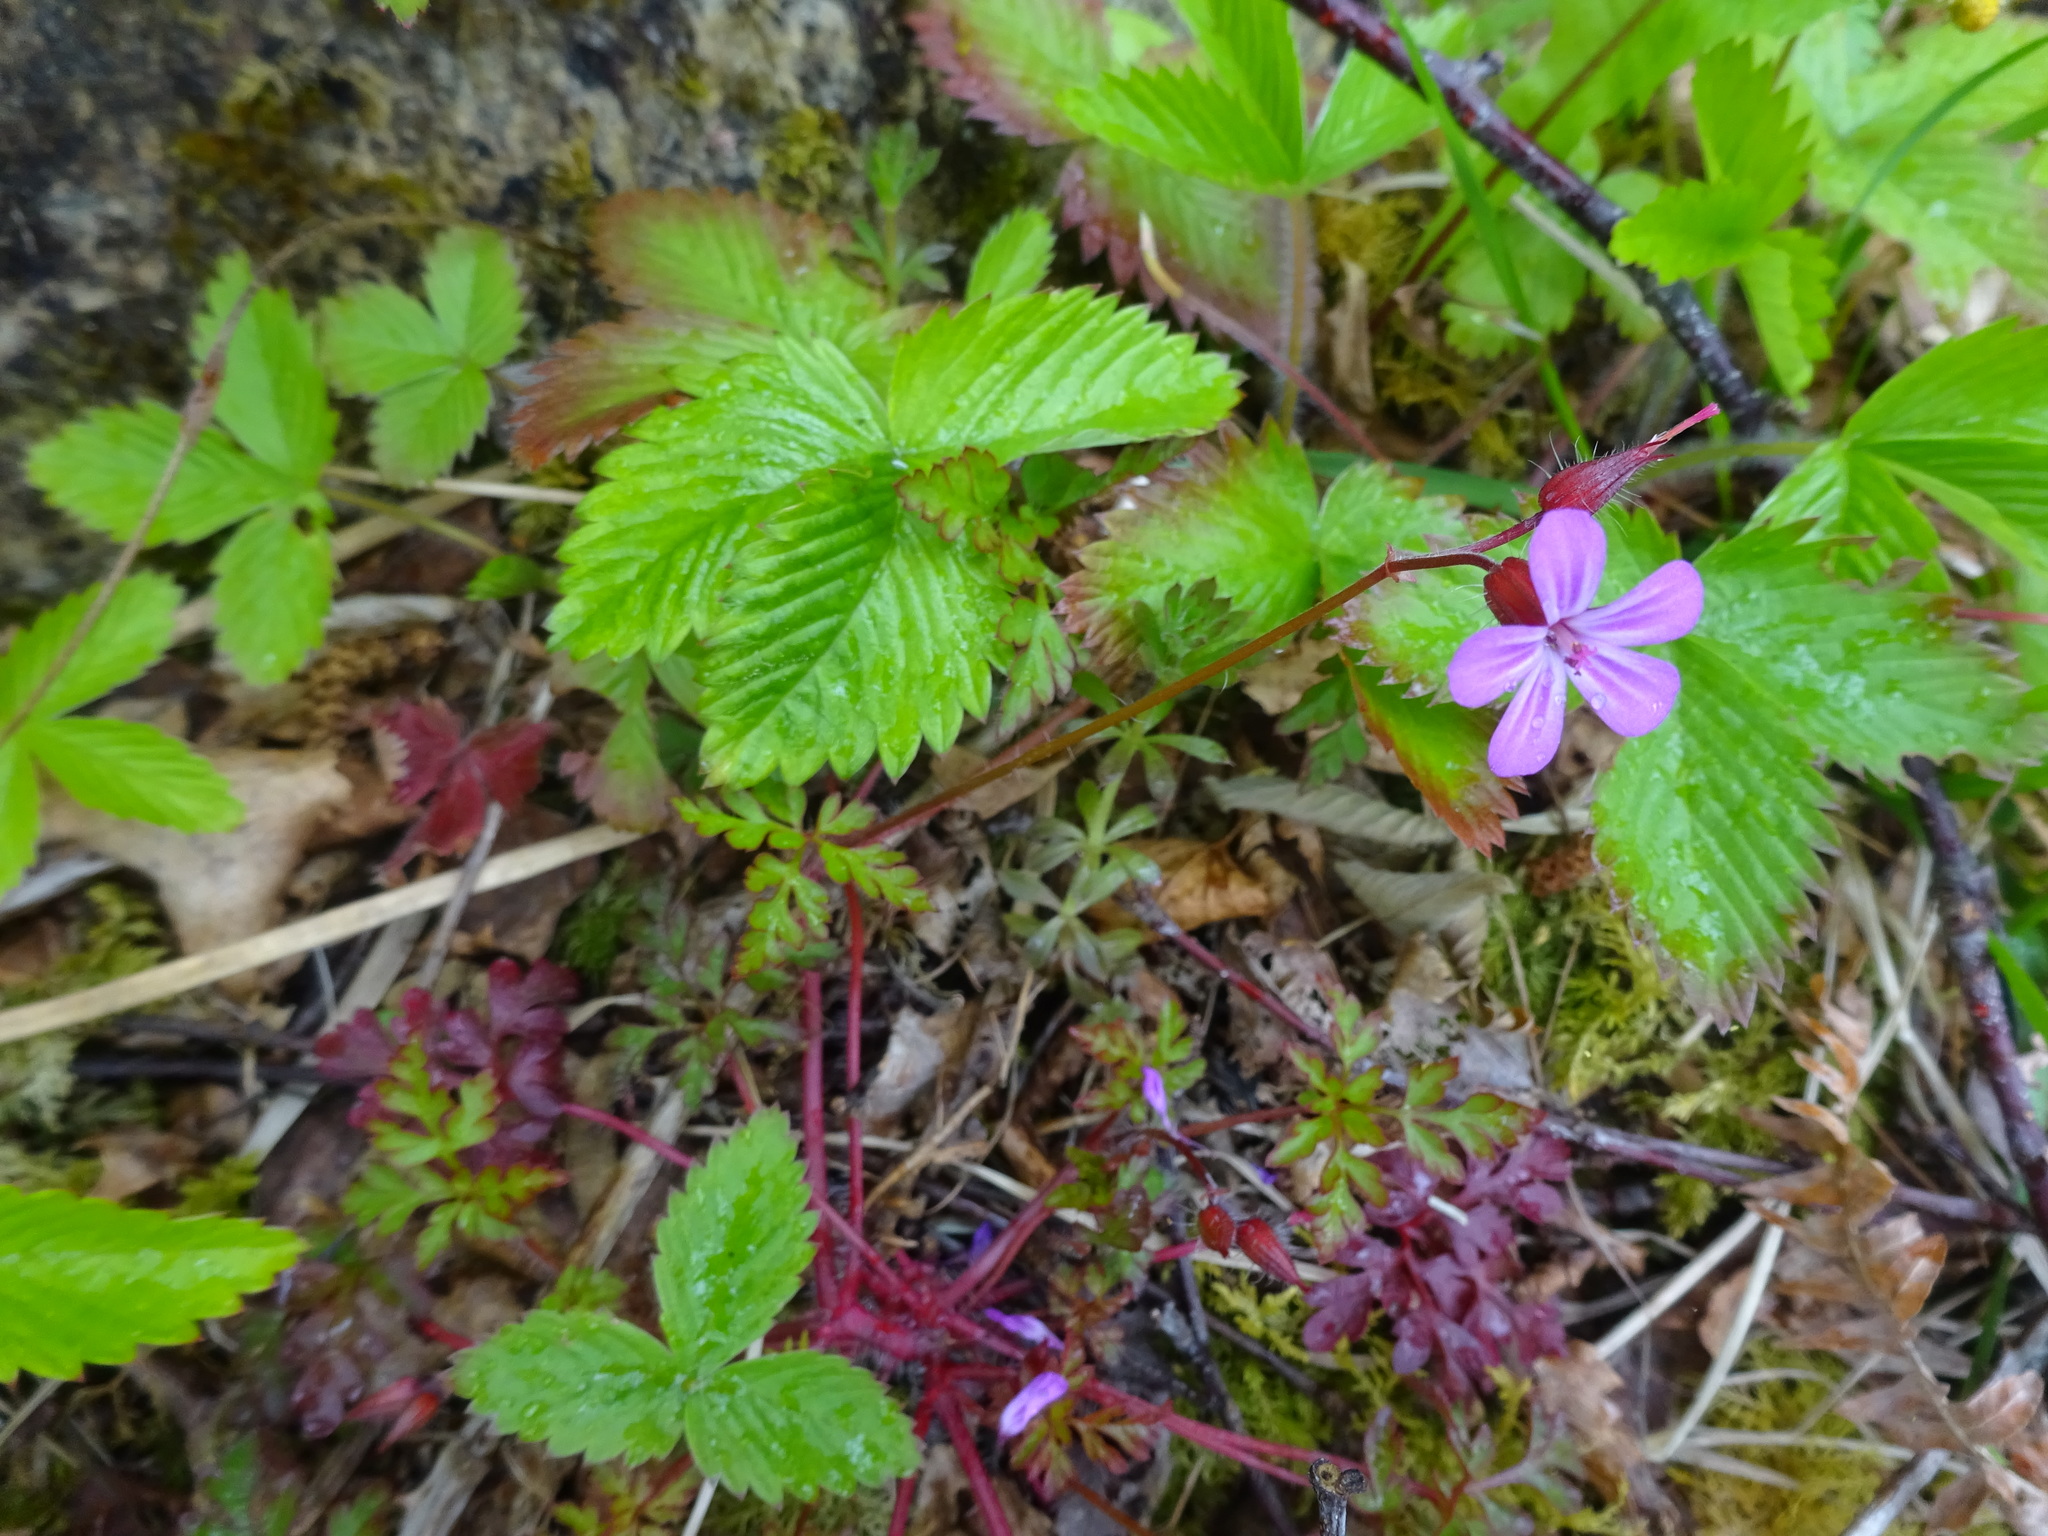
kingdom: Plantae
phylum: Tracheophyta
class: Magnoliopsida
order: Geraniales
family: Geraniaceae
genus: Geranium
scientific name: Geranium robertianum
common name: Herb-robert
